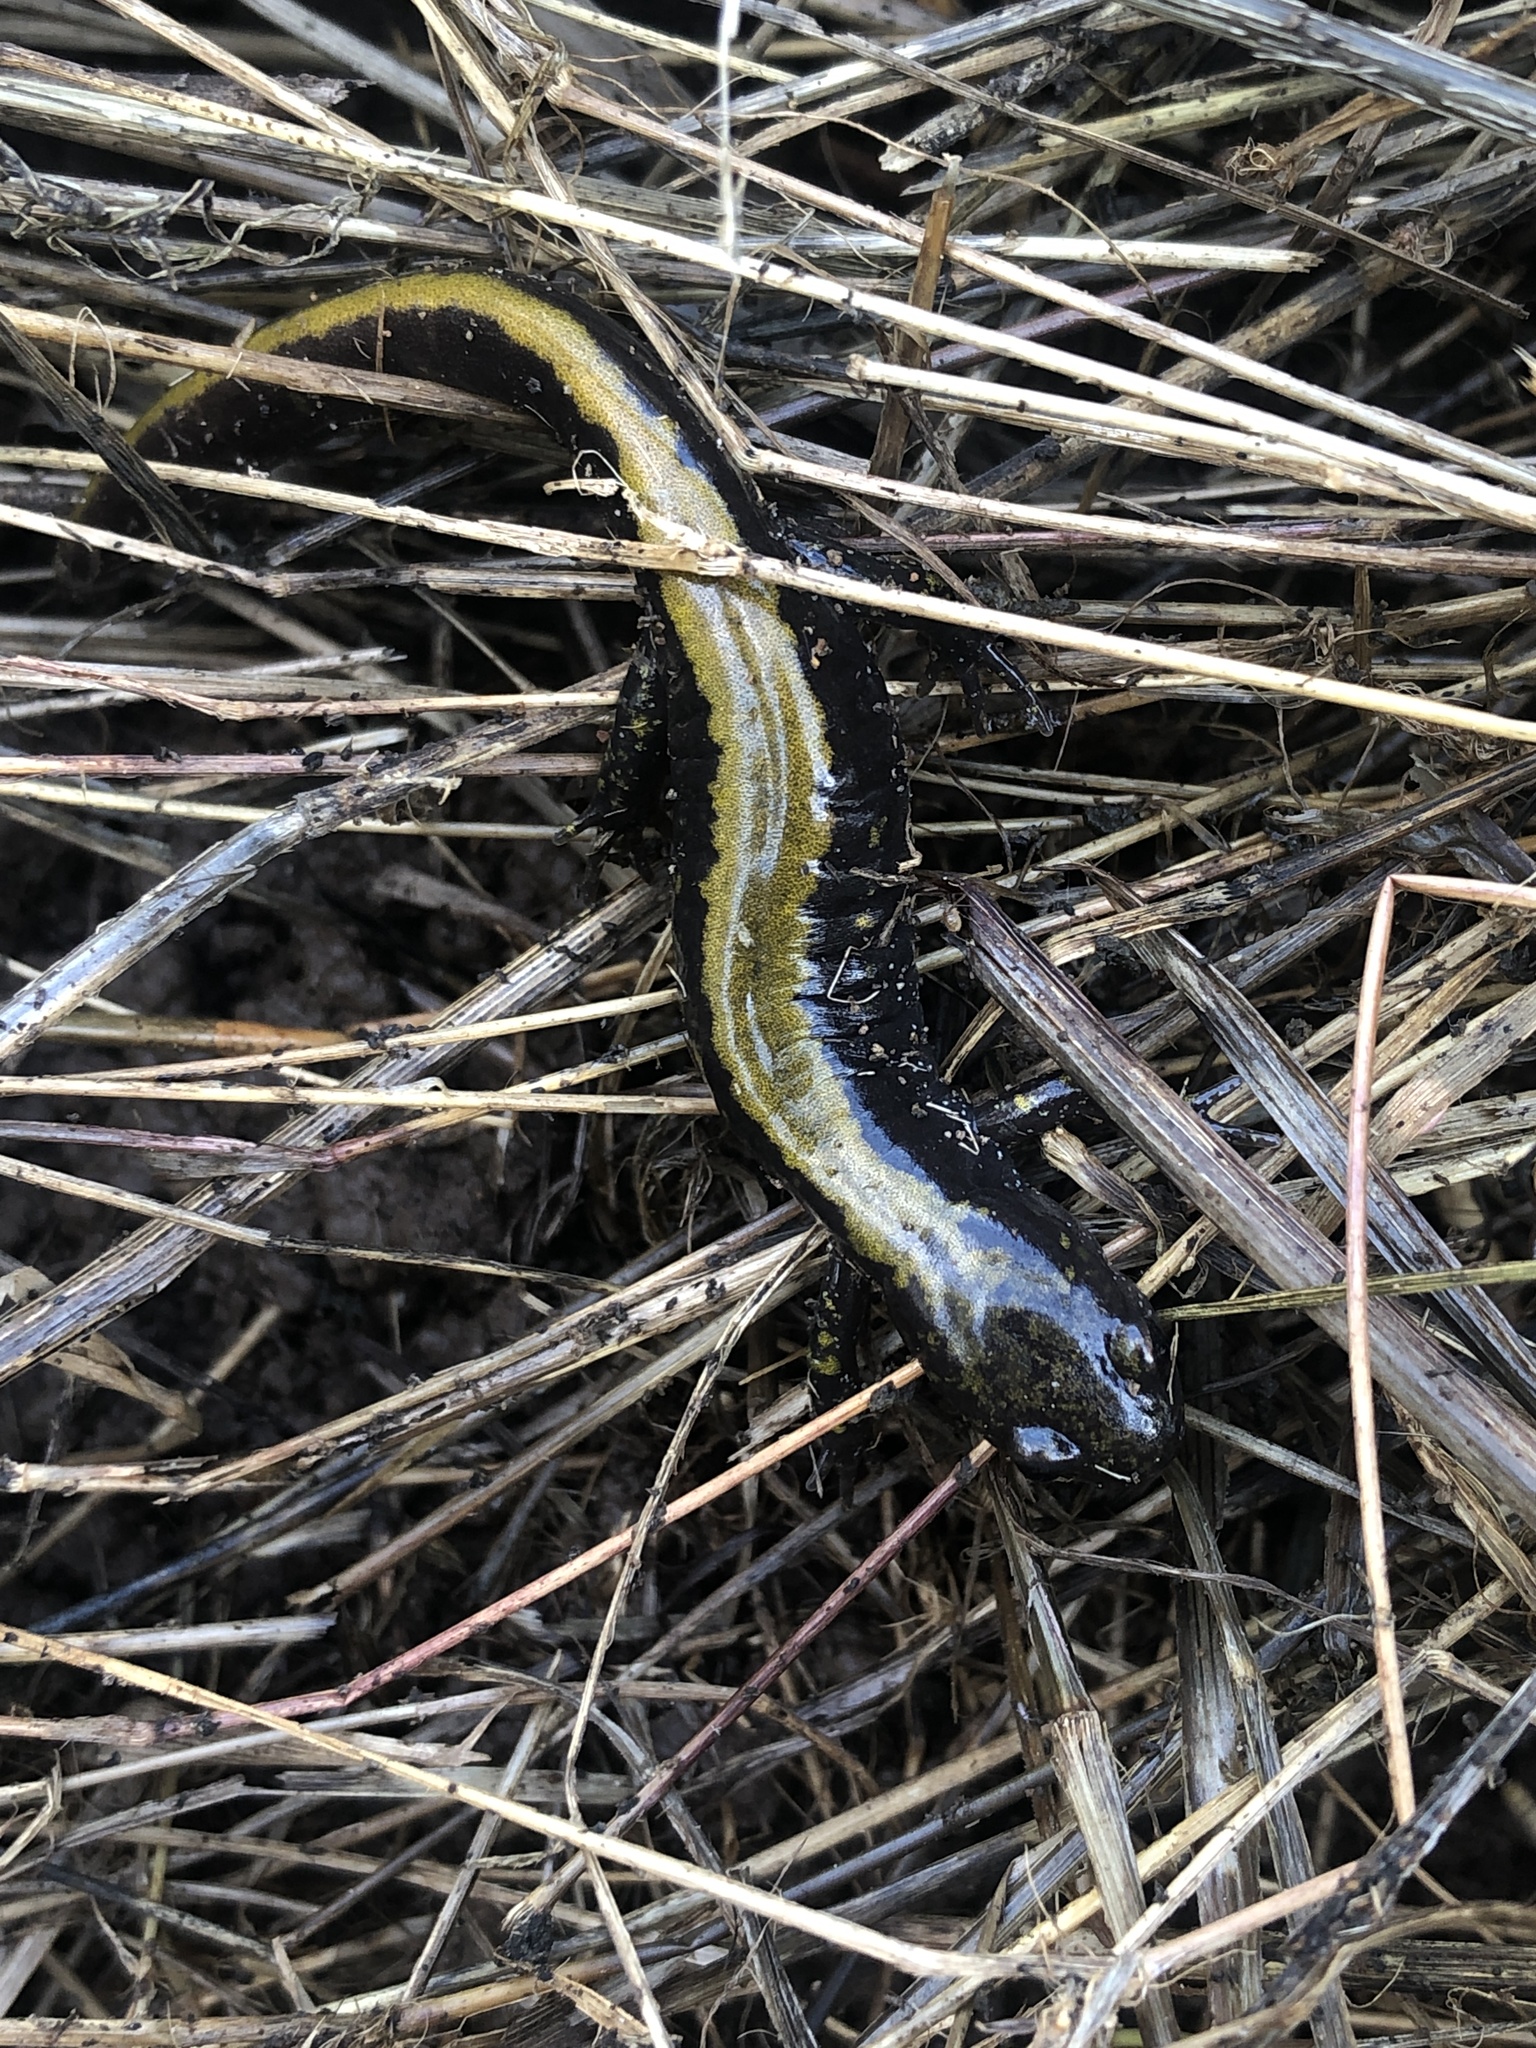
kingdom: Animalia
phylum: Chordata
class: Amphibia
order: Caudata
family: Ambystomatidae
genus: Ambystoma
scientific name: Ambystoma macrodactylum
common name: Long-toed salamander
